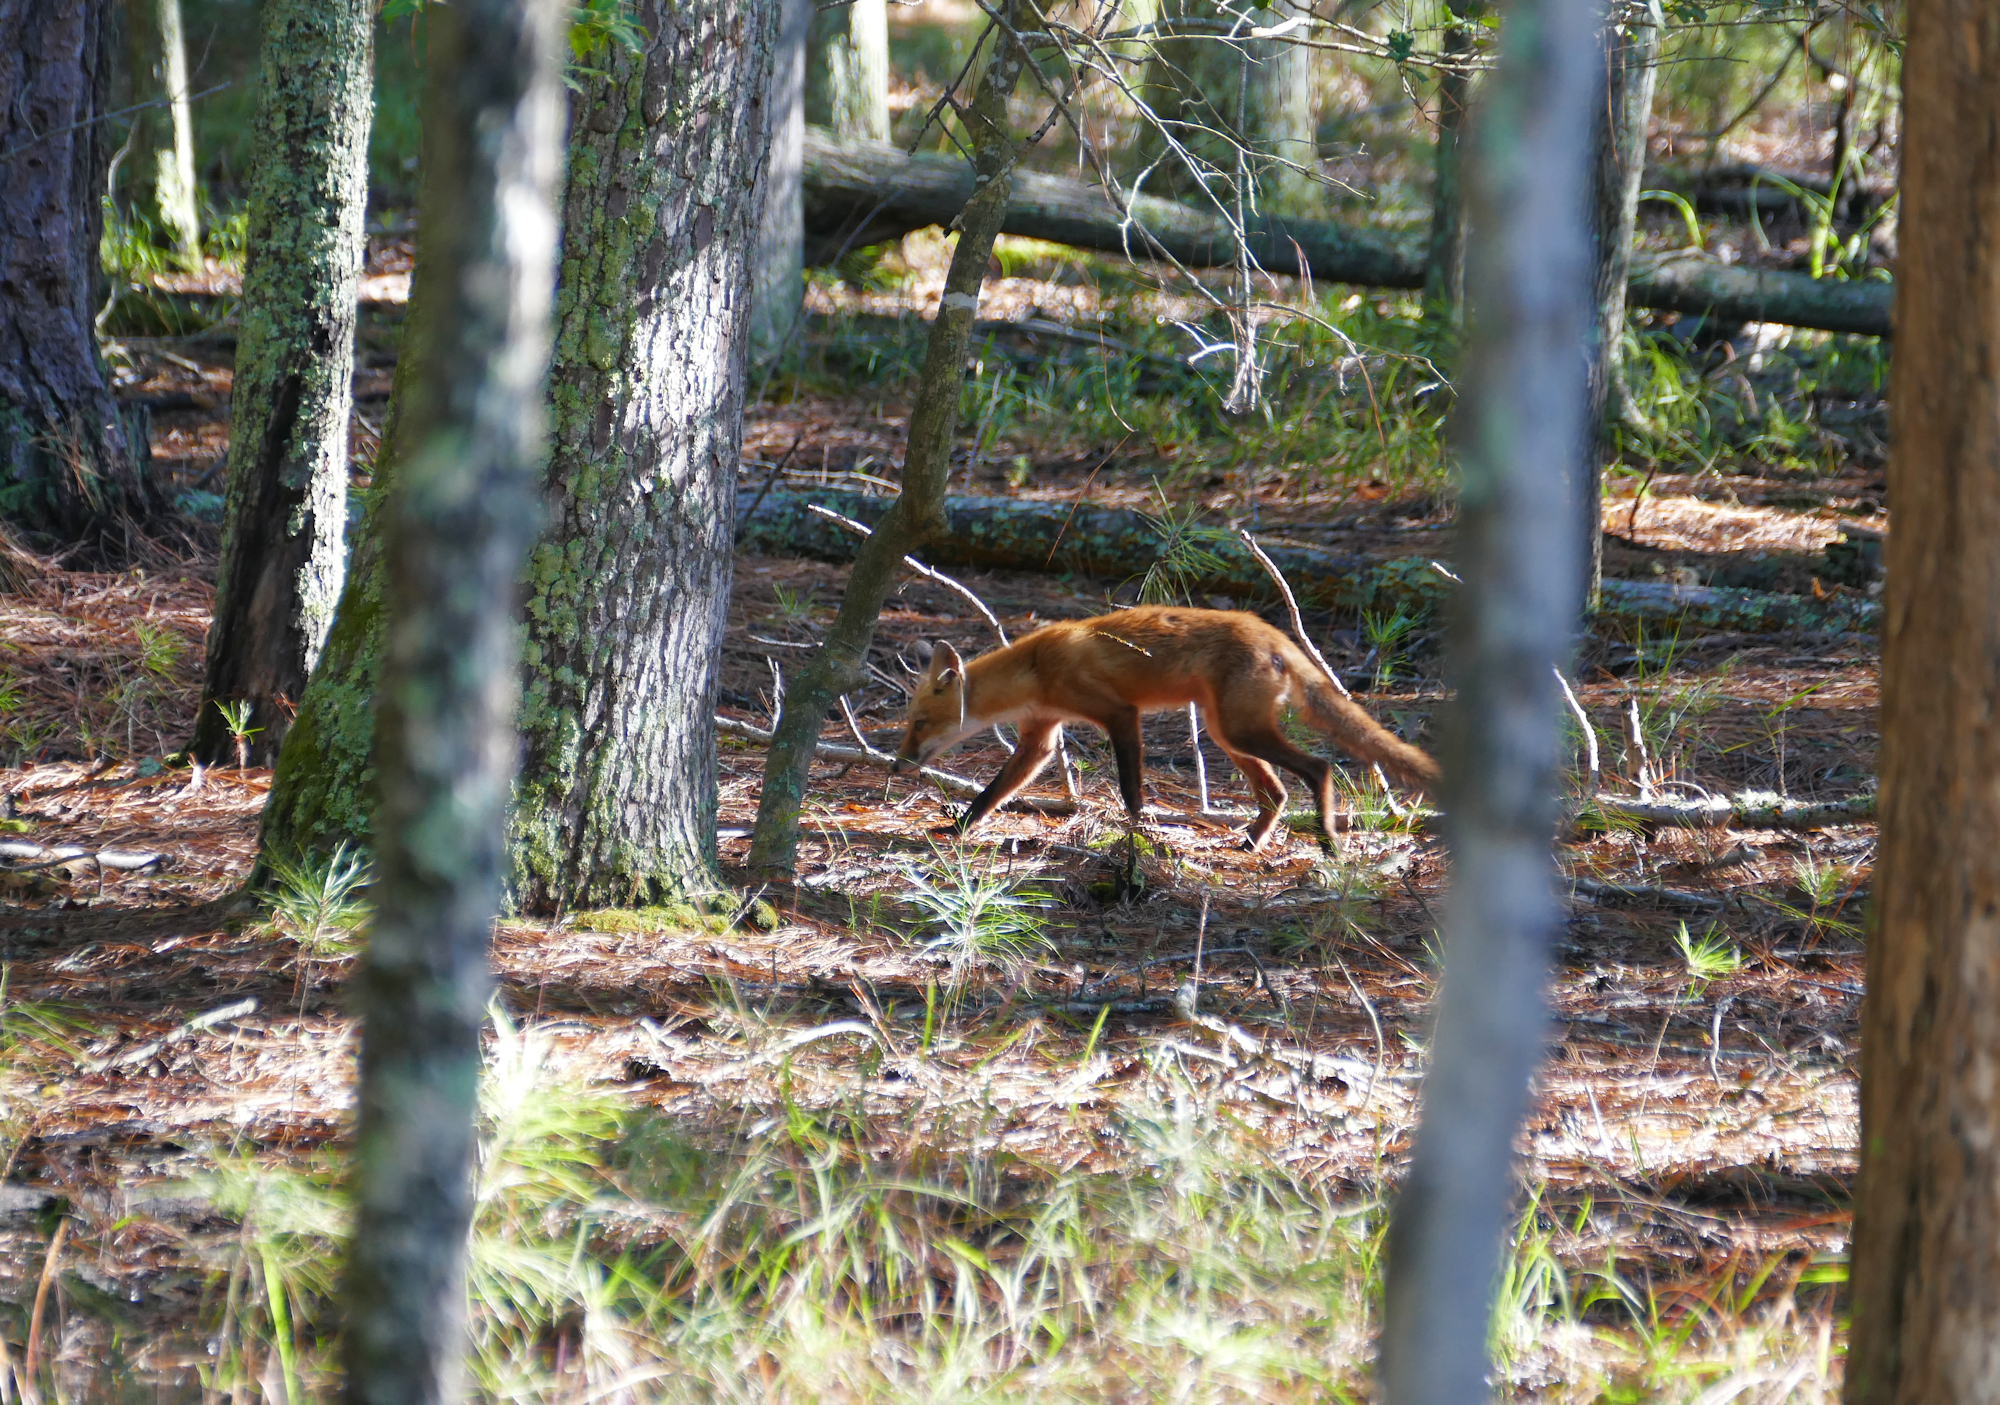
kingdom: Animalia
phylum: Chordata
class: Mammalia
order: Carnivora
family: Canidae
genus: Vulpes
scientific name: Vulpes vulpes
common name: Red fox
